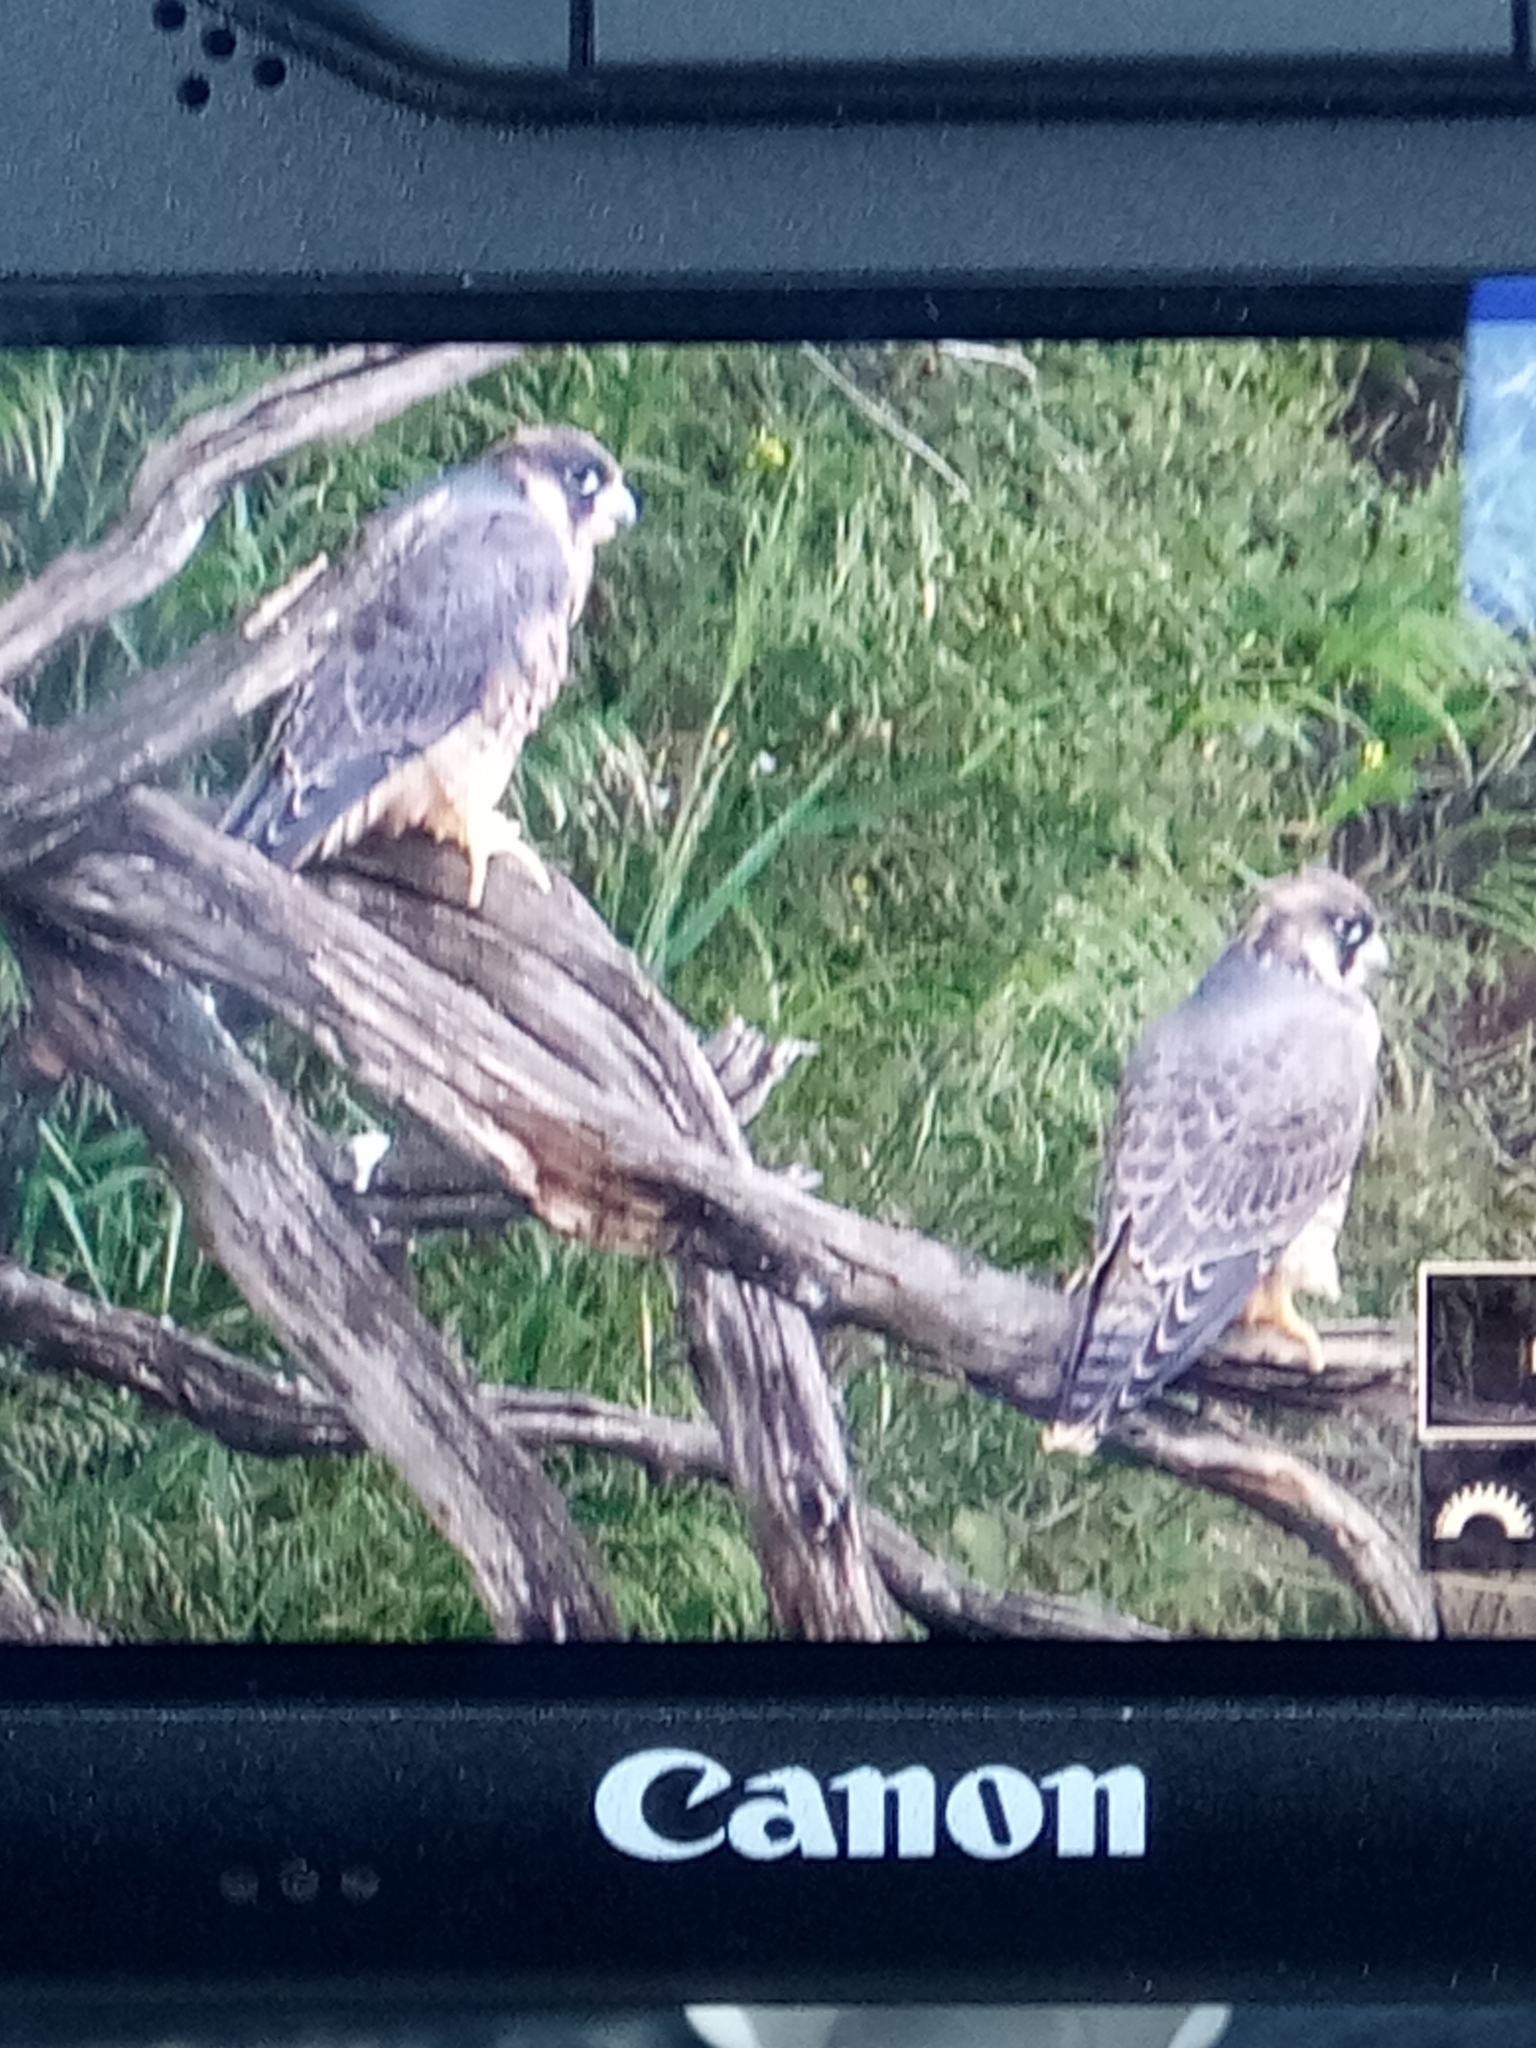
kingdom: Animalia
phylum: Chordata
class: Aves
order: Falconiformes
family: Falconidae
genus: Falco
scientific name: Falco peregrinus
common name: Peregrine falcon
